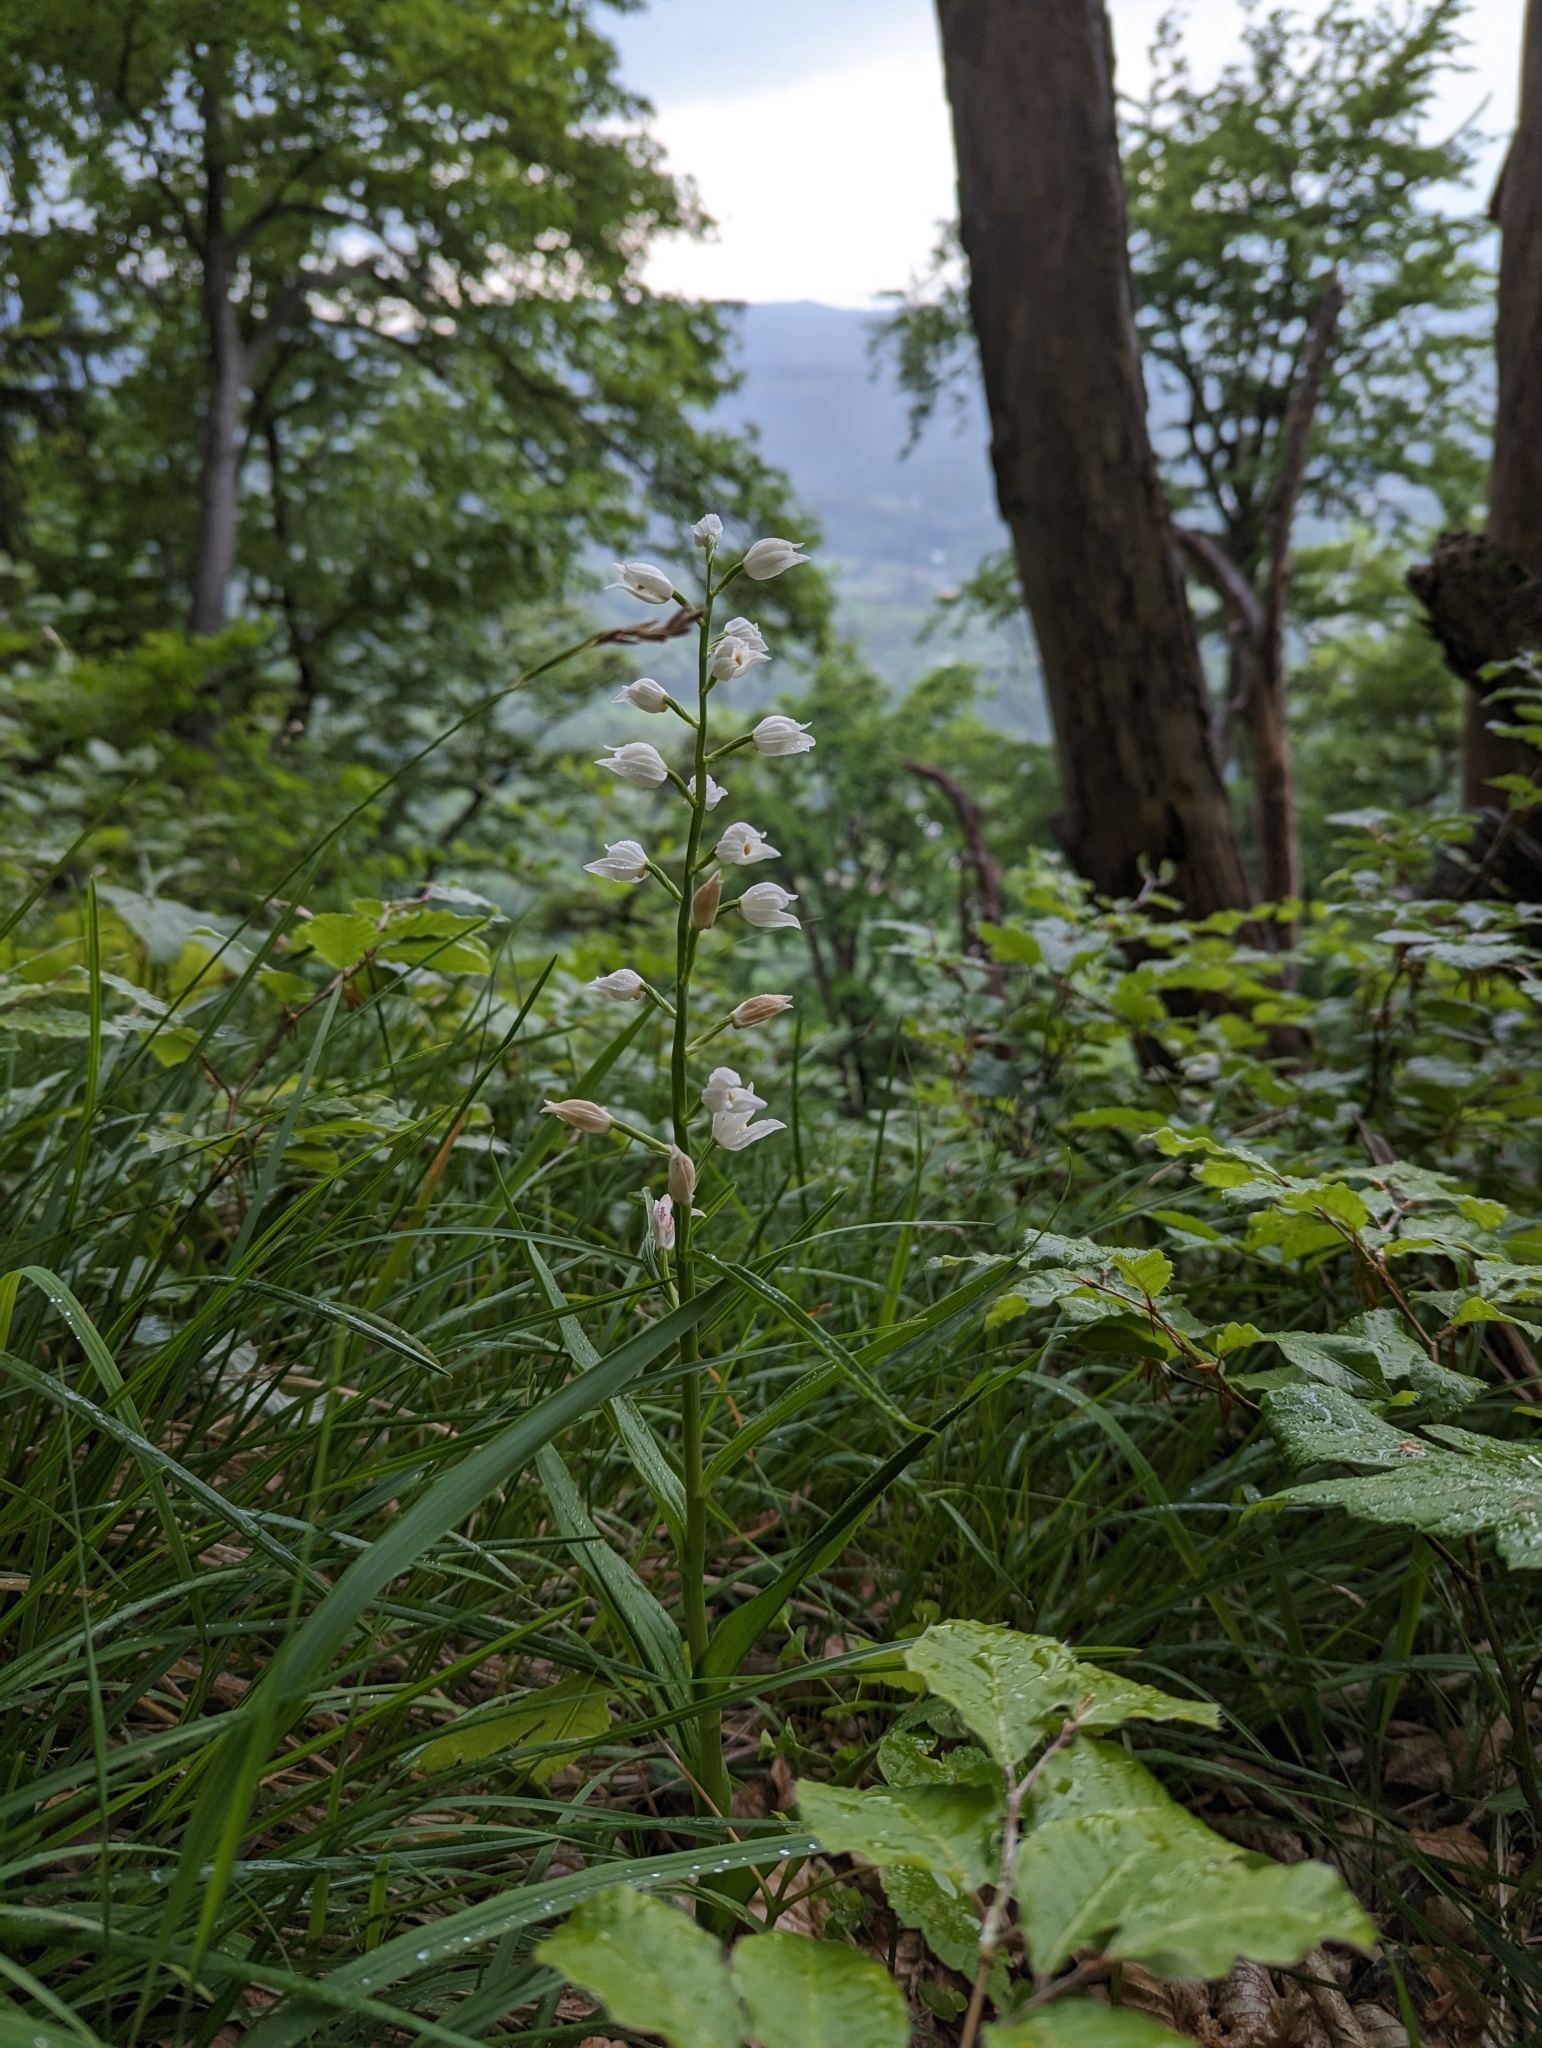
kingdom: Plantae
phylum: Tracheophyta
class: Liliopsida
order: Asparagales
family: Orchidaceae
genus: Cephalanthera
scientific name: Cephalanthera longifolia
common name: Narrow-leaved helleborine
